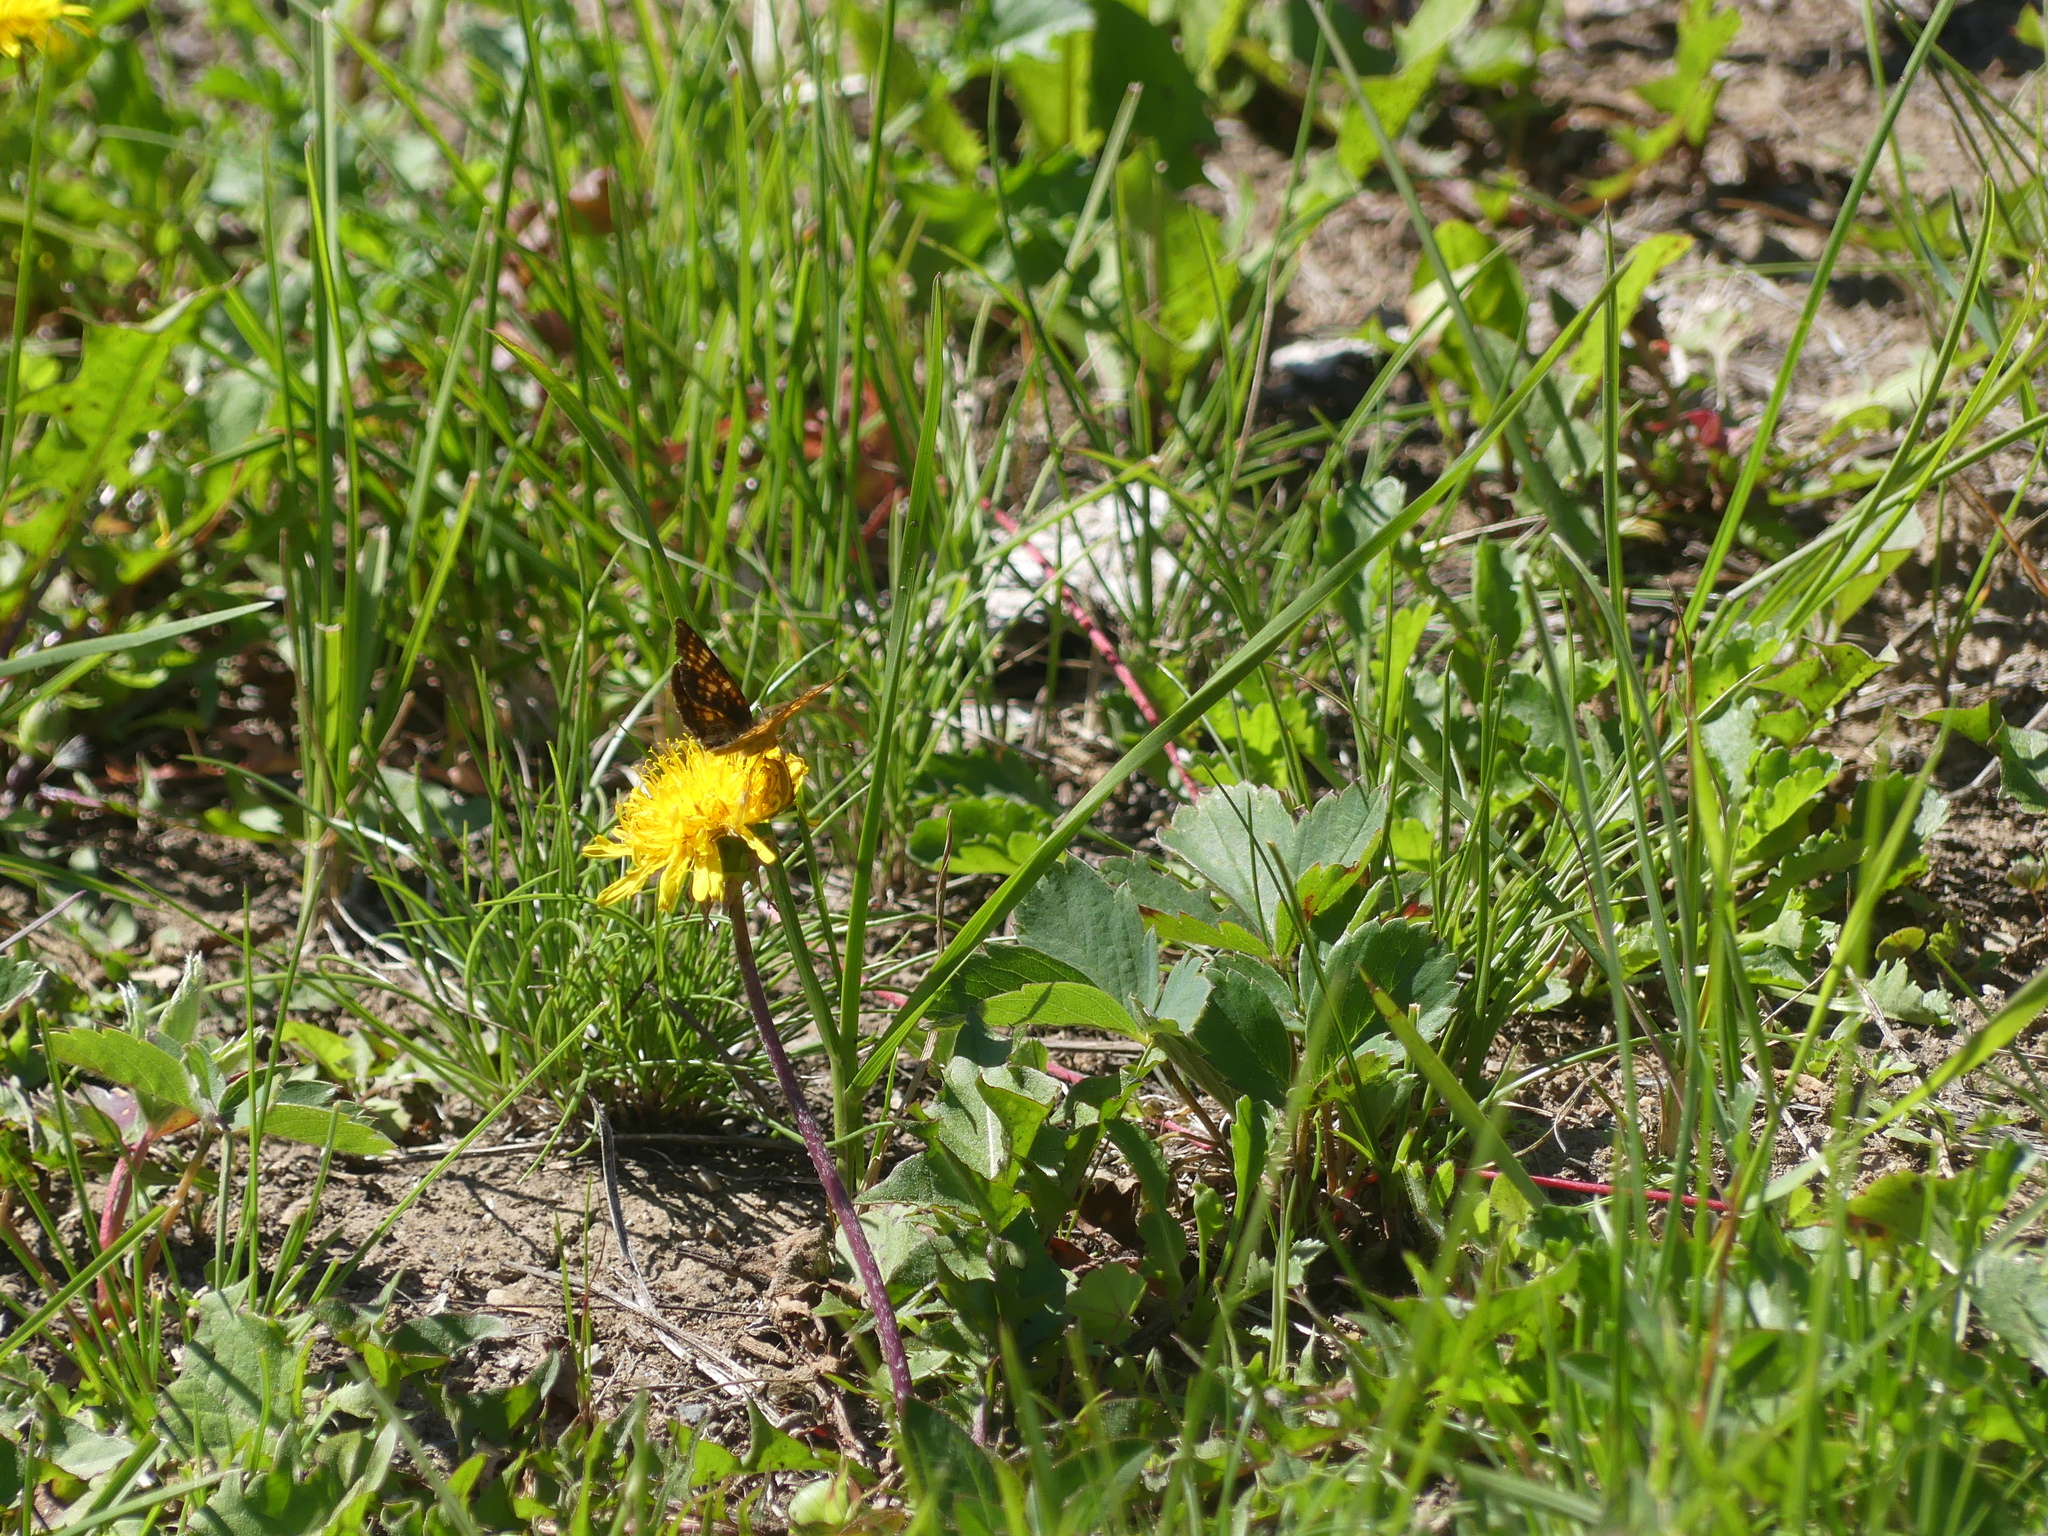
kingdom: Animalia
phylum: Arthropoda
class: Insecta
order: Lepidoptera
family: Nymphalidae
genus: Phyciodes
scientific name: Phyciodes tharos
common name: Pearl crescent
